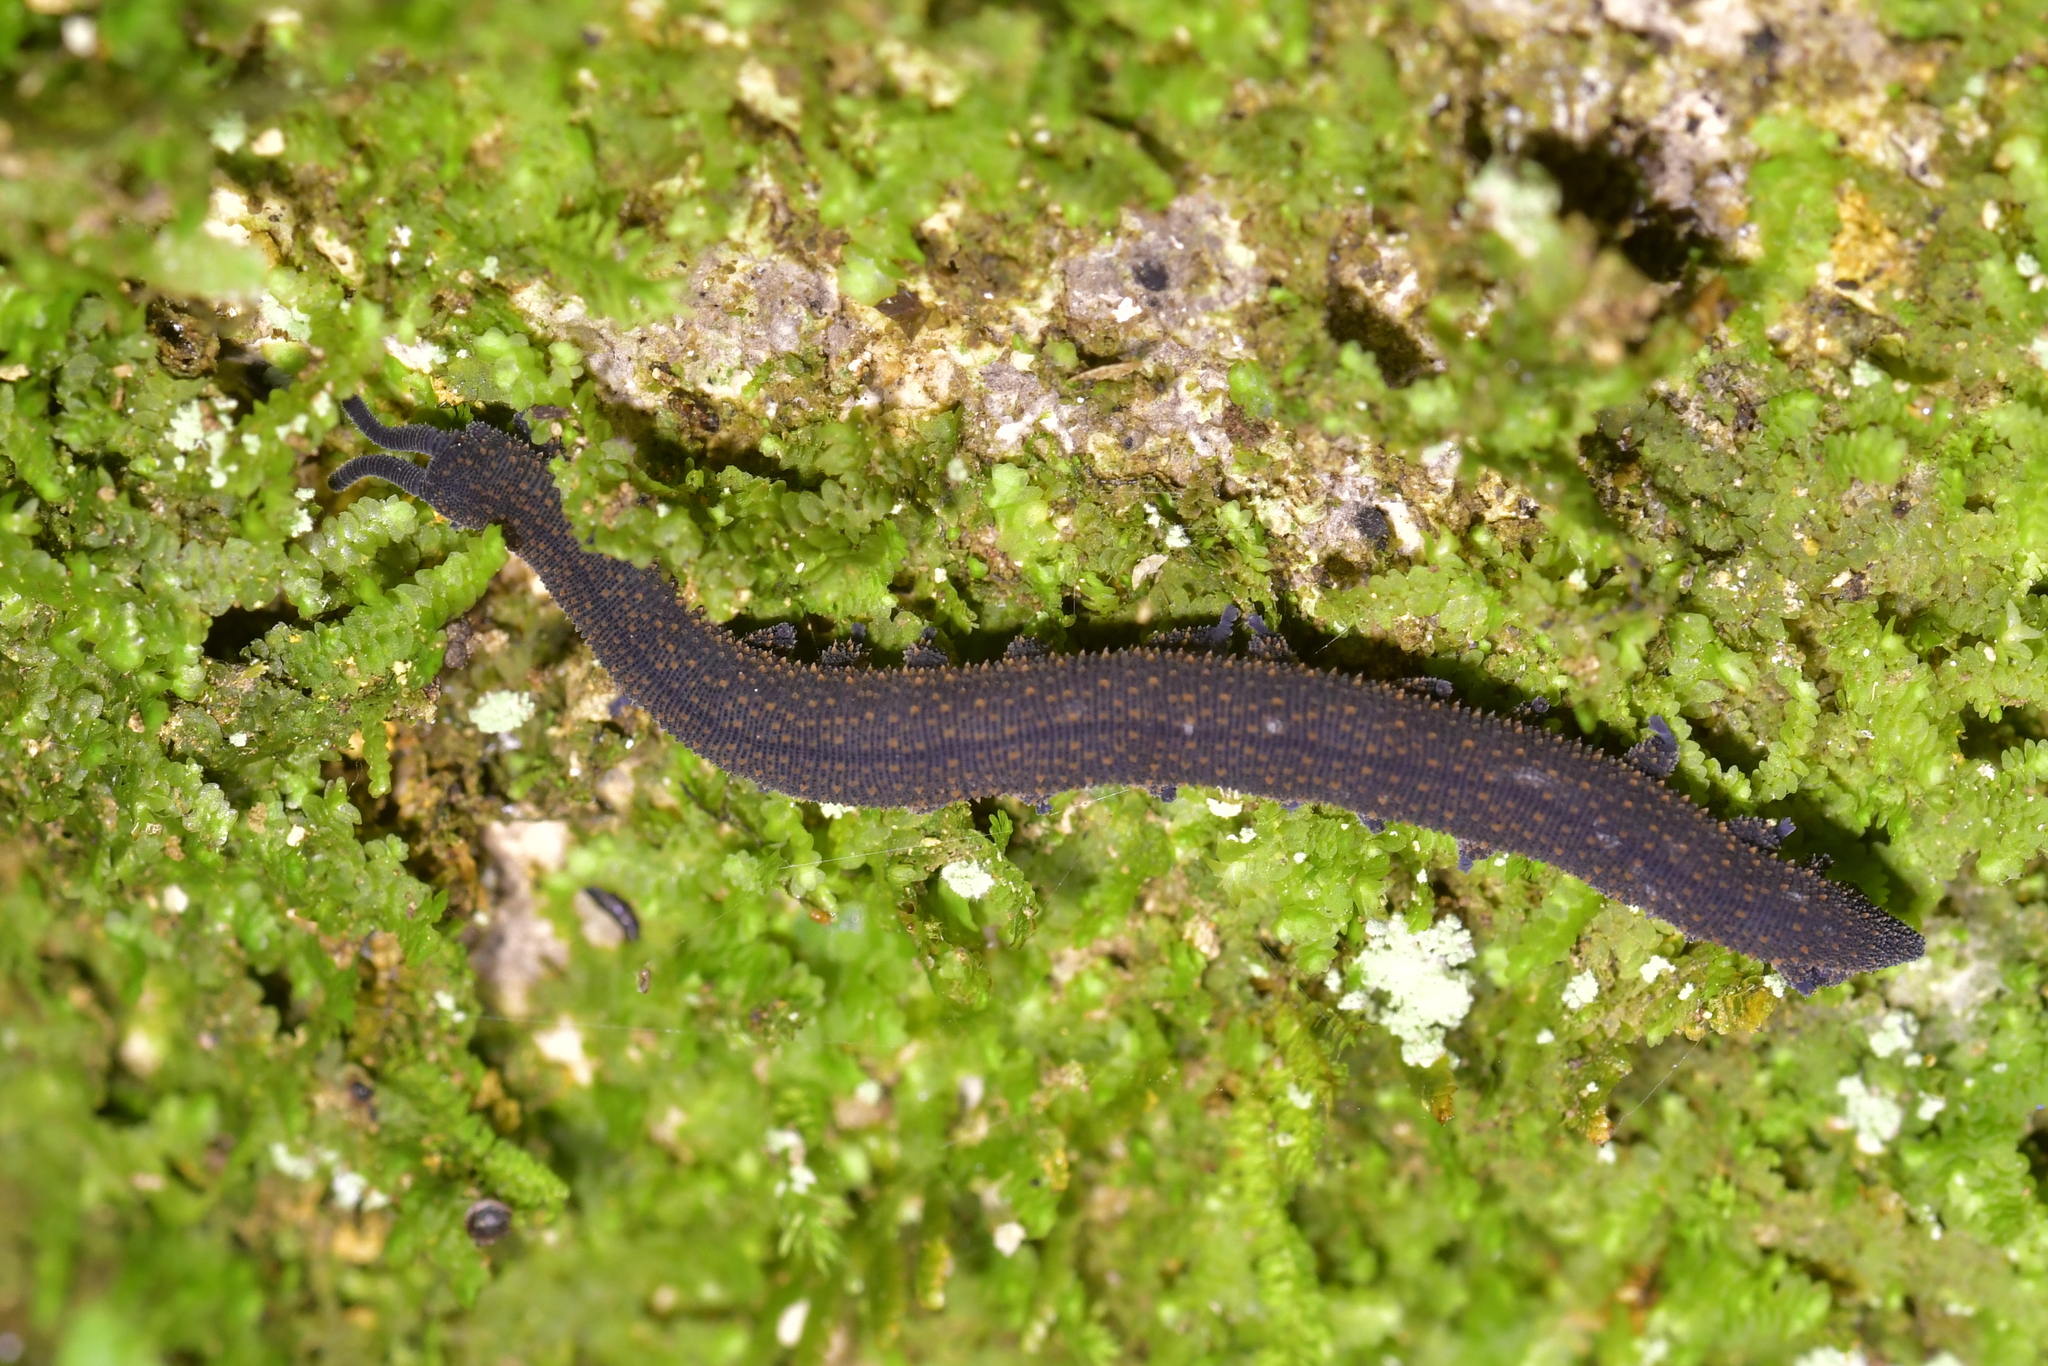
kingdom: Animalia
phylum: Onychophora
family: Peripatopsidae
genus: Peripatoides
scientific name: Peripatoides novaezealandiae
